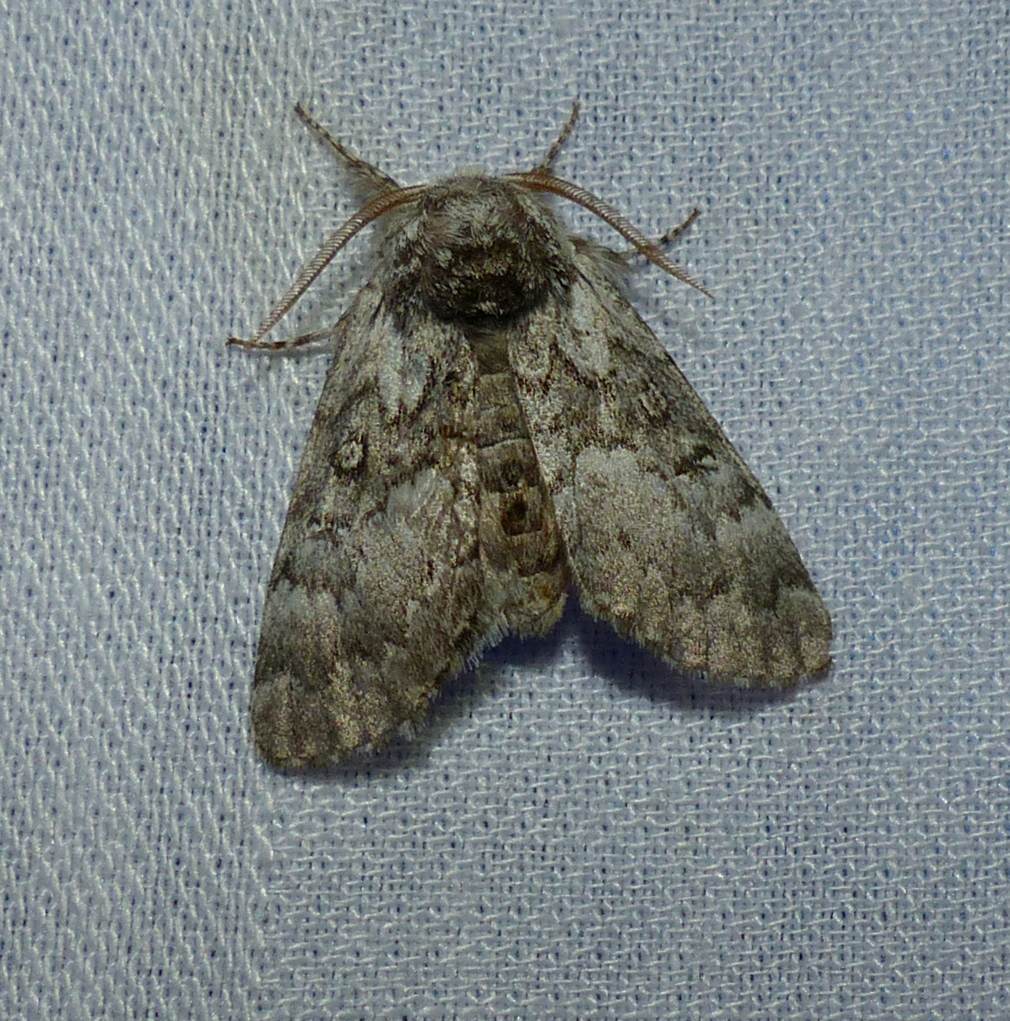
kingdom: Animalia
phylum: Arthropoda
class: Insecta
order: Lepidoptera
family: Noctuidae
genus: Colocasia
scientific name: Colocasia propinquilinea
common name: Close-banded demas
